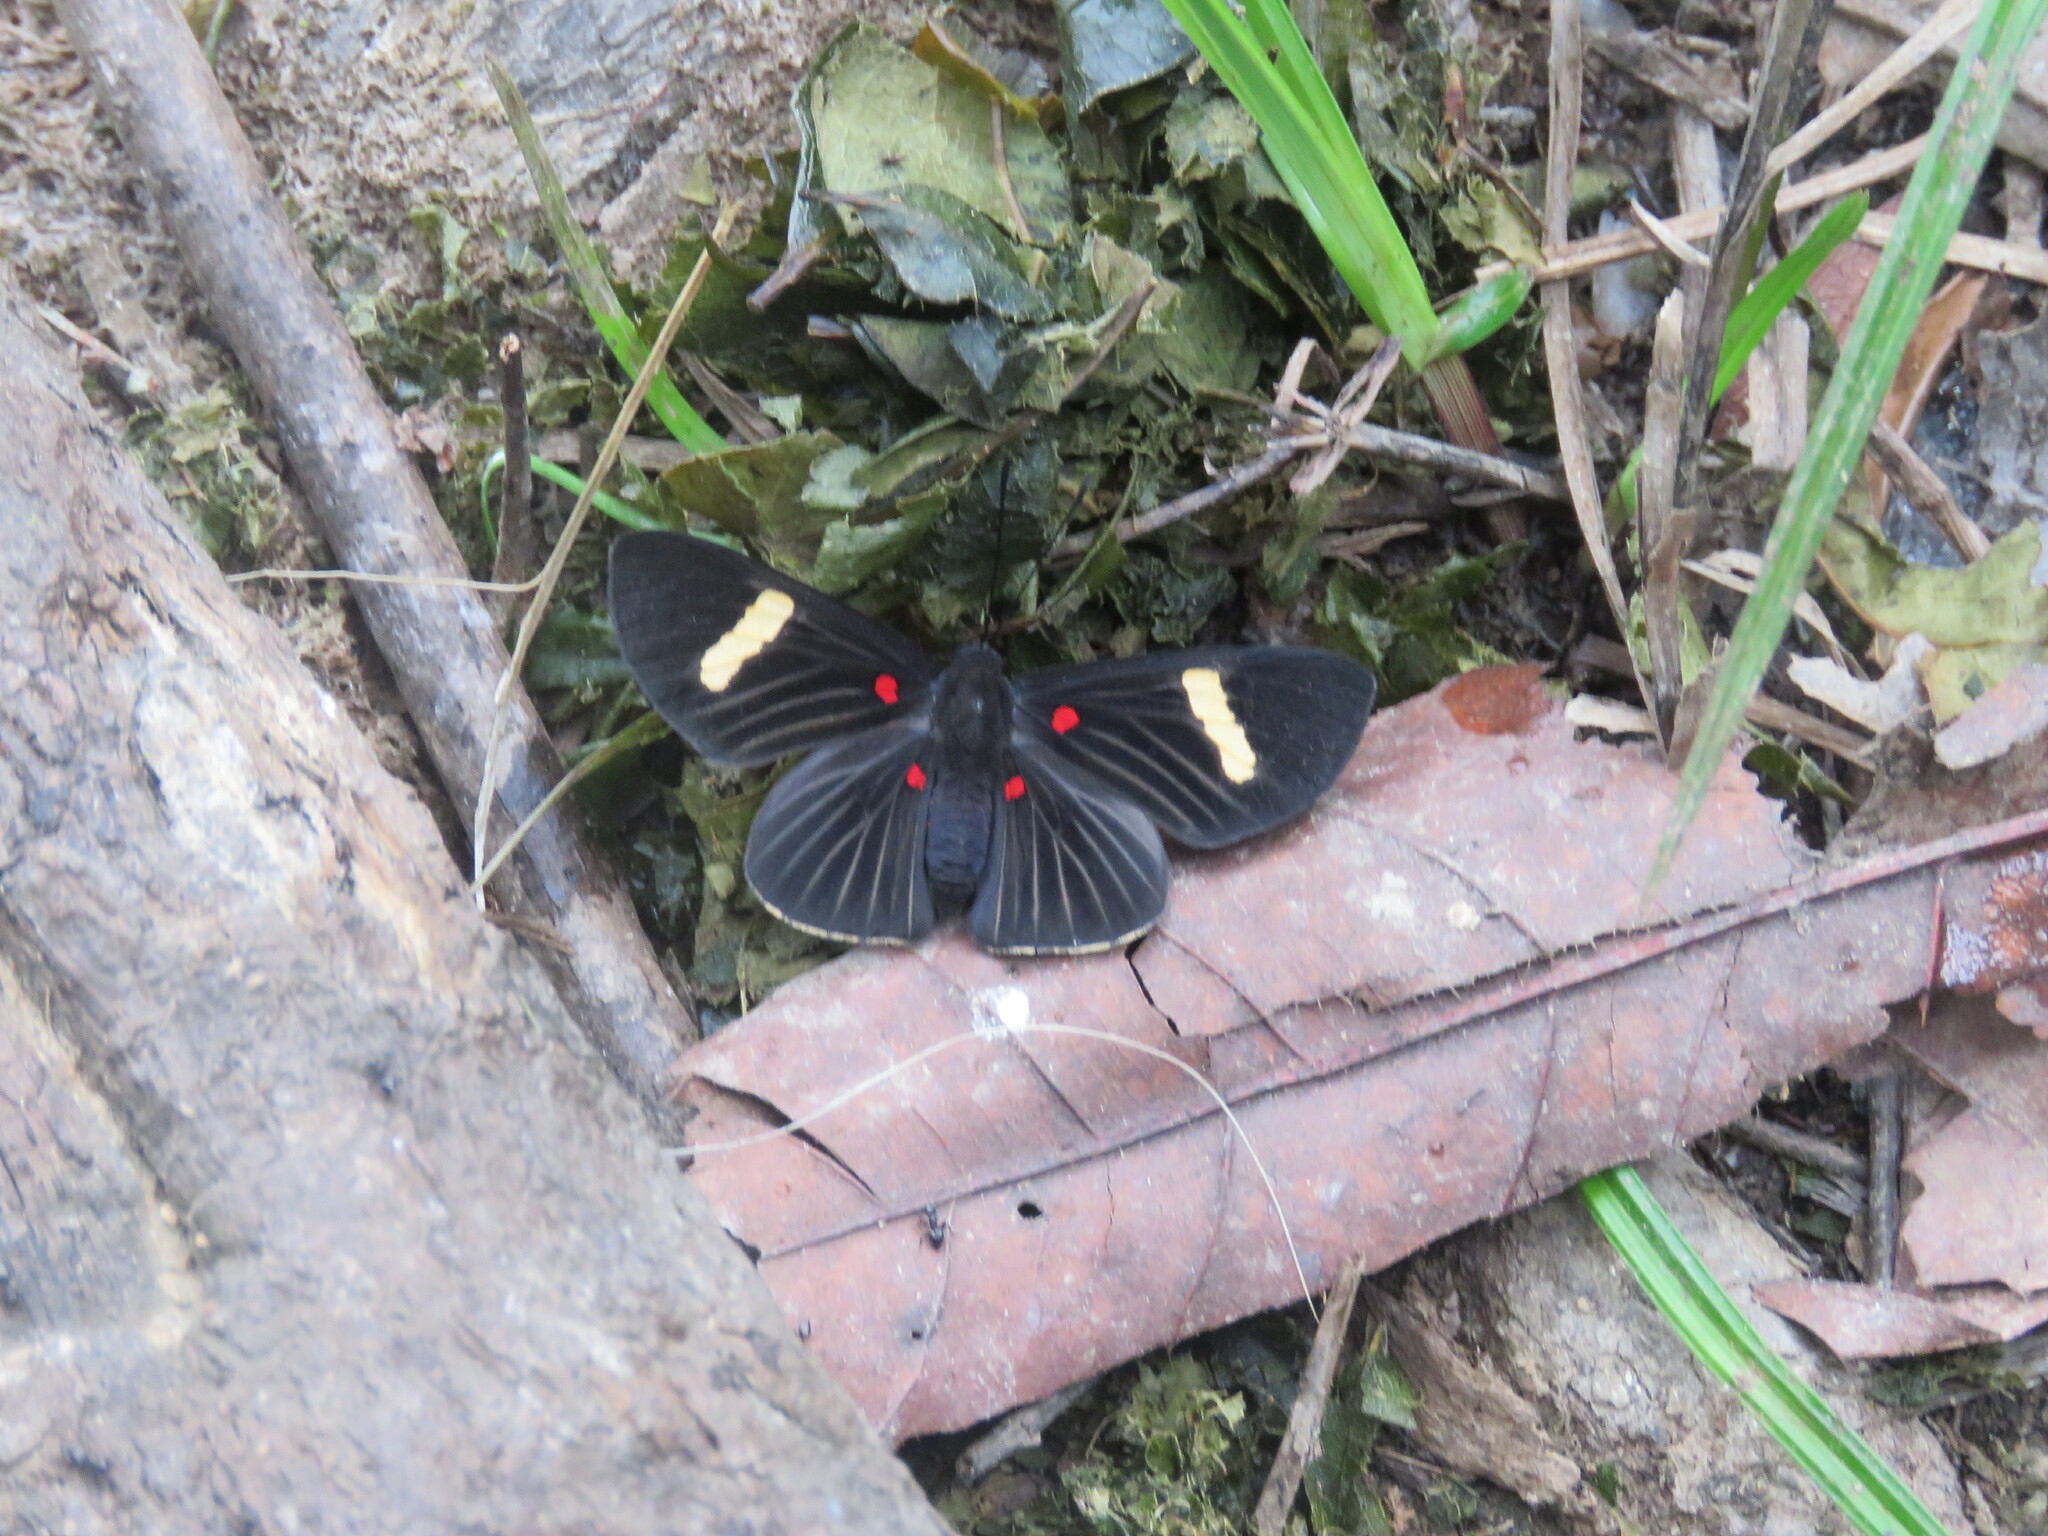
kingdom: Animalia
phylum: Arthropoda
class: Insecta
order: Lepidoptera
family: Lycaenidae
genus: Melanis
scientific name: Melanis aegates
